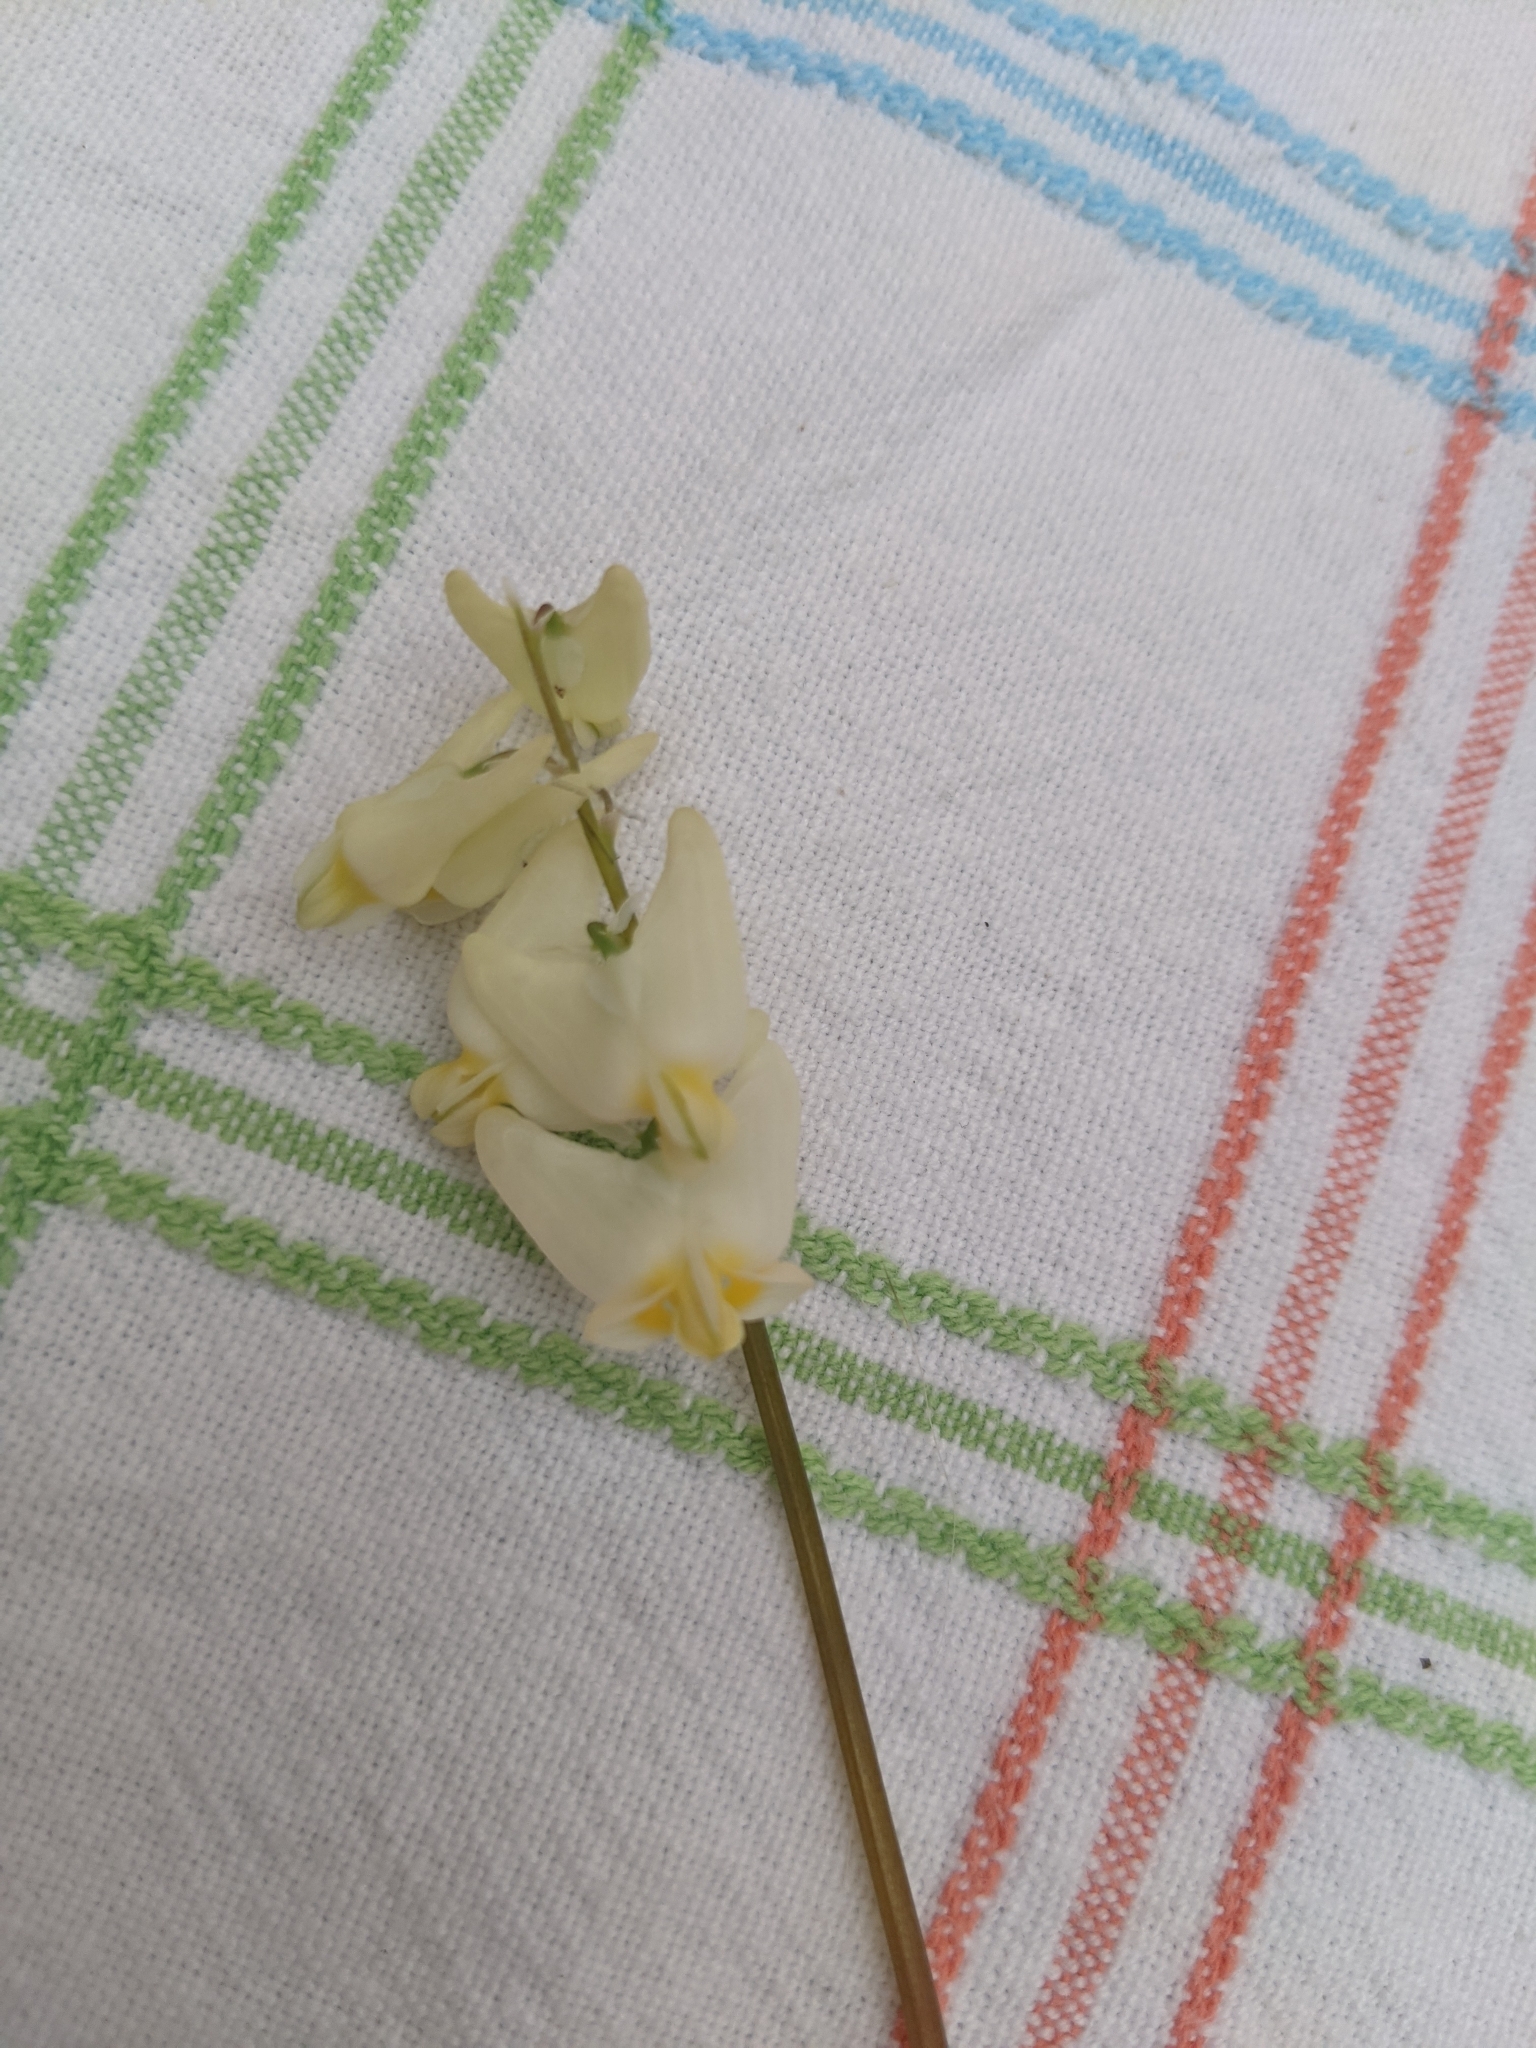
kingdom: Plantae
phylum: Tracheophyta
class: Magnoliopsida
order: Ranunculales
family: Papaveraceae
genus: Dicentra
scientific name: Dicentra cucullaria
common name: Dutchman's breeches
